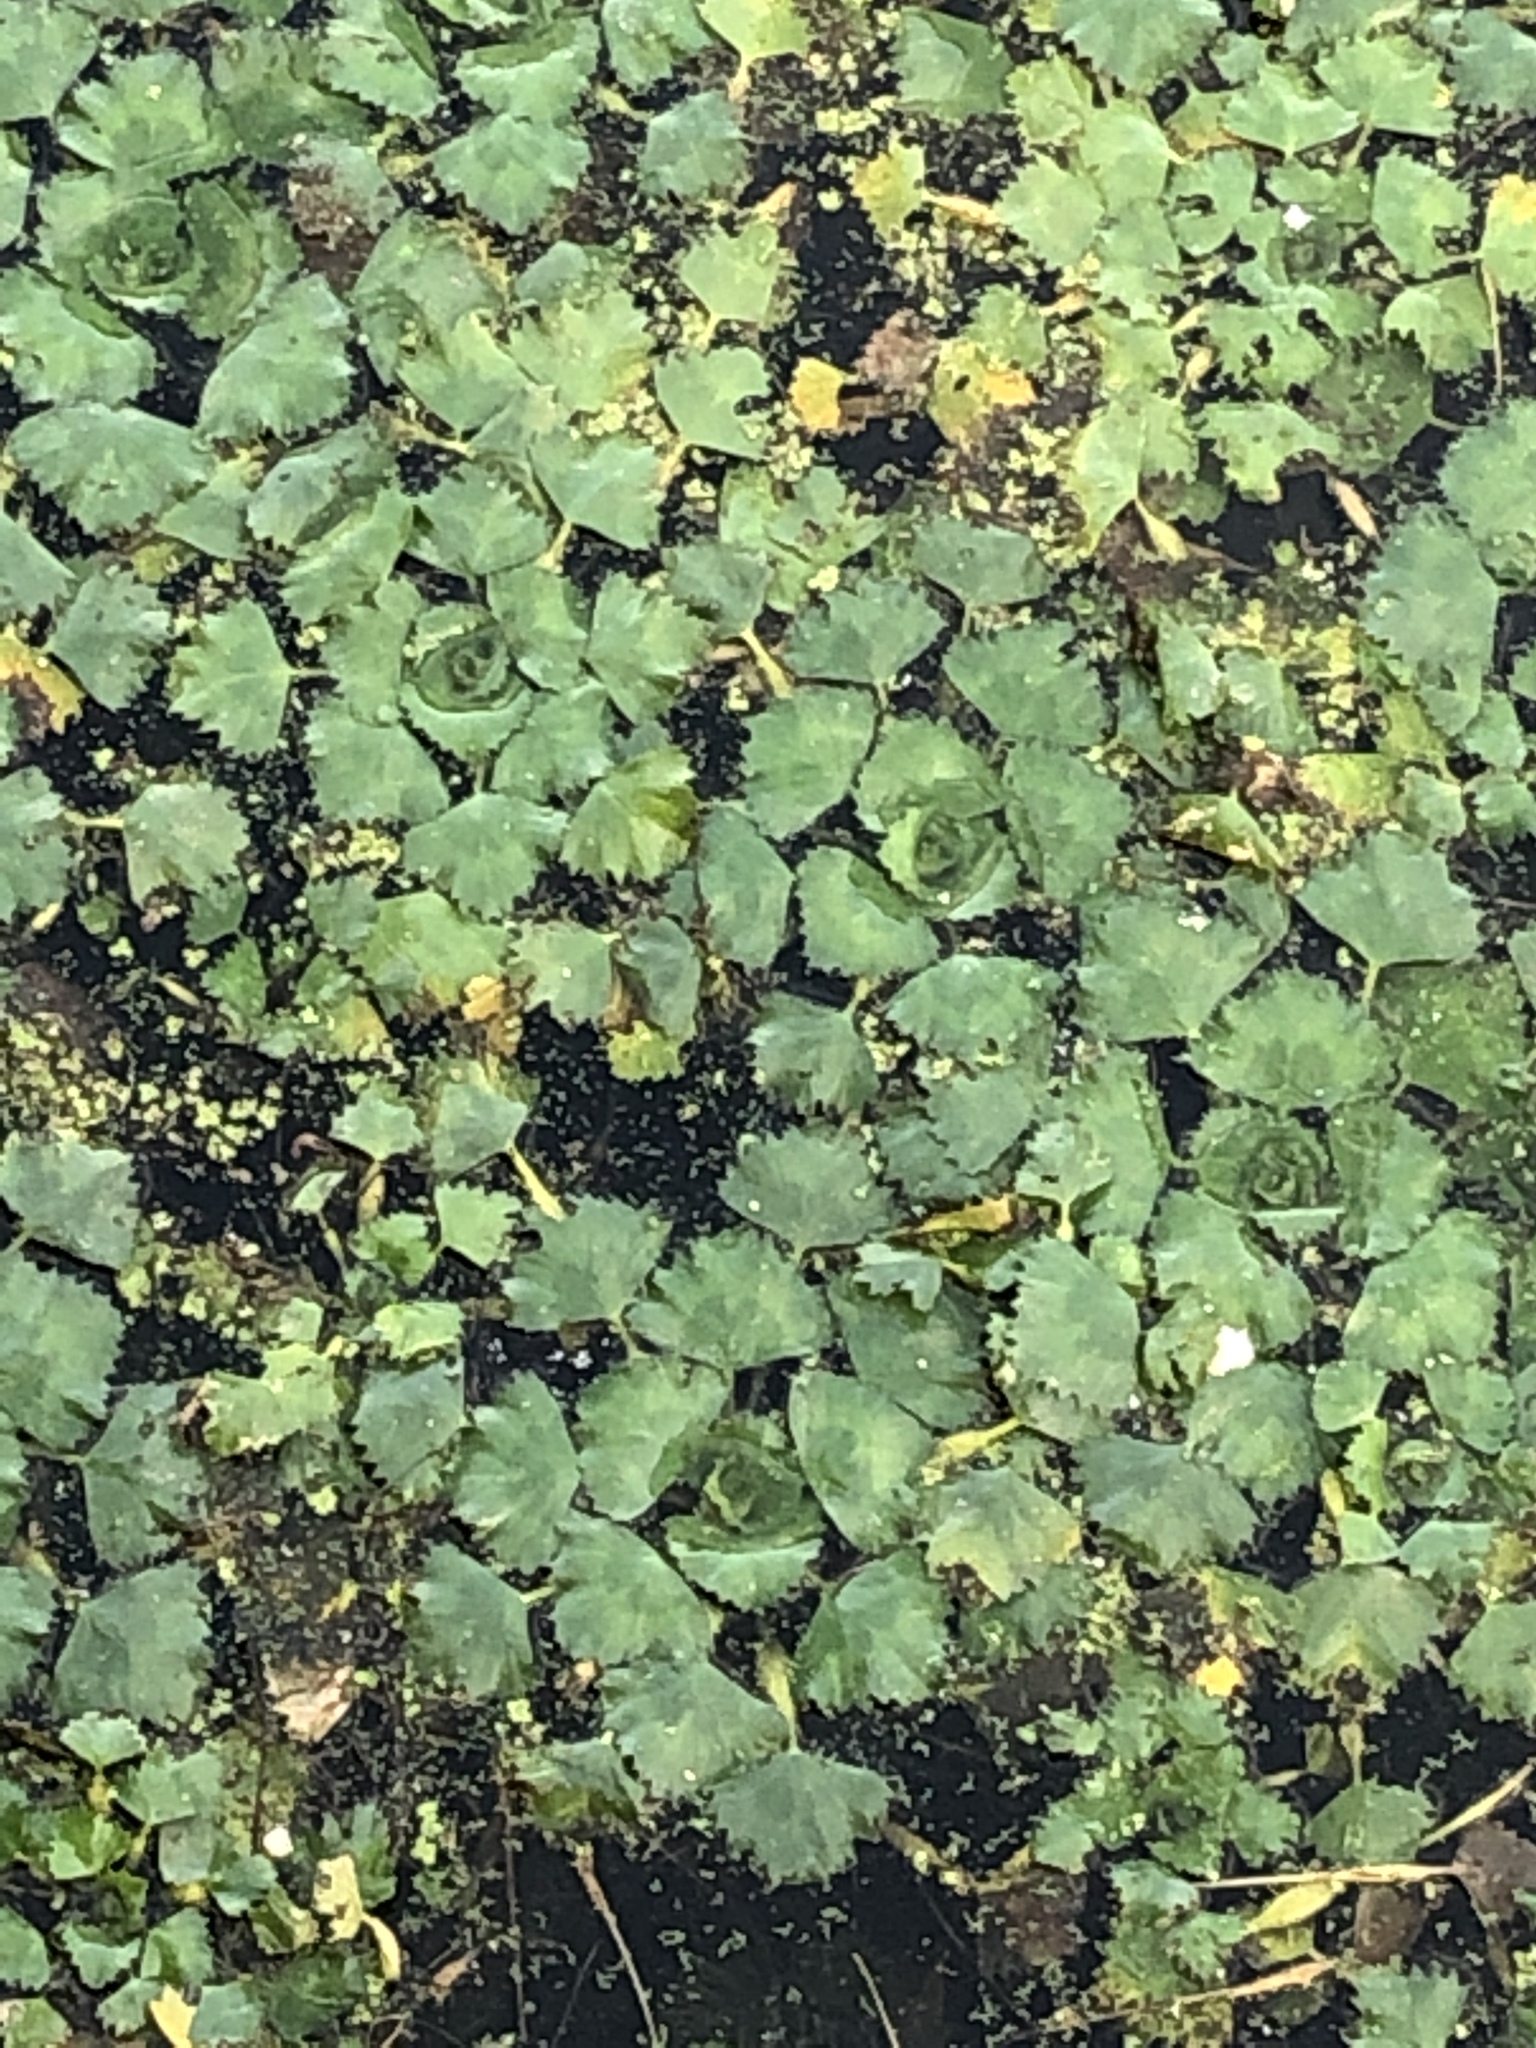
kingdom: Plantae
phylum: Tracheophyta
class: Magnoliopsida
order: Myrtales
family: Lythraceae
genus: Trapa
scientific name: Trapa natans
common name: Water chestnut
